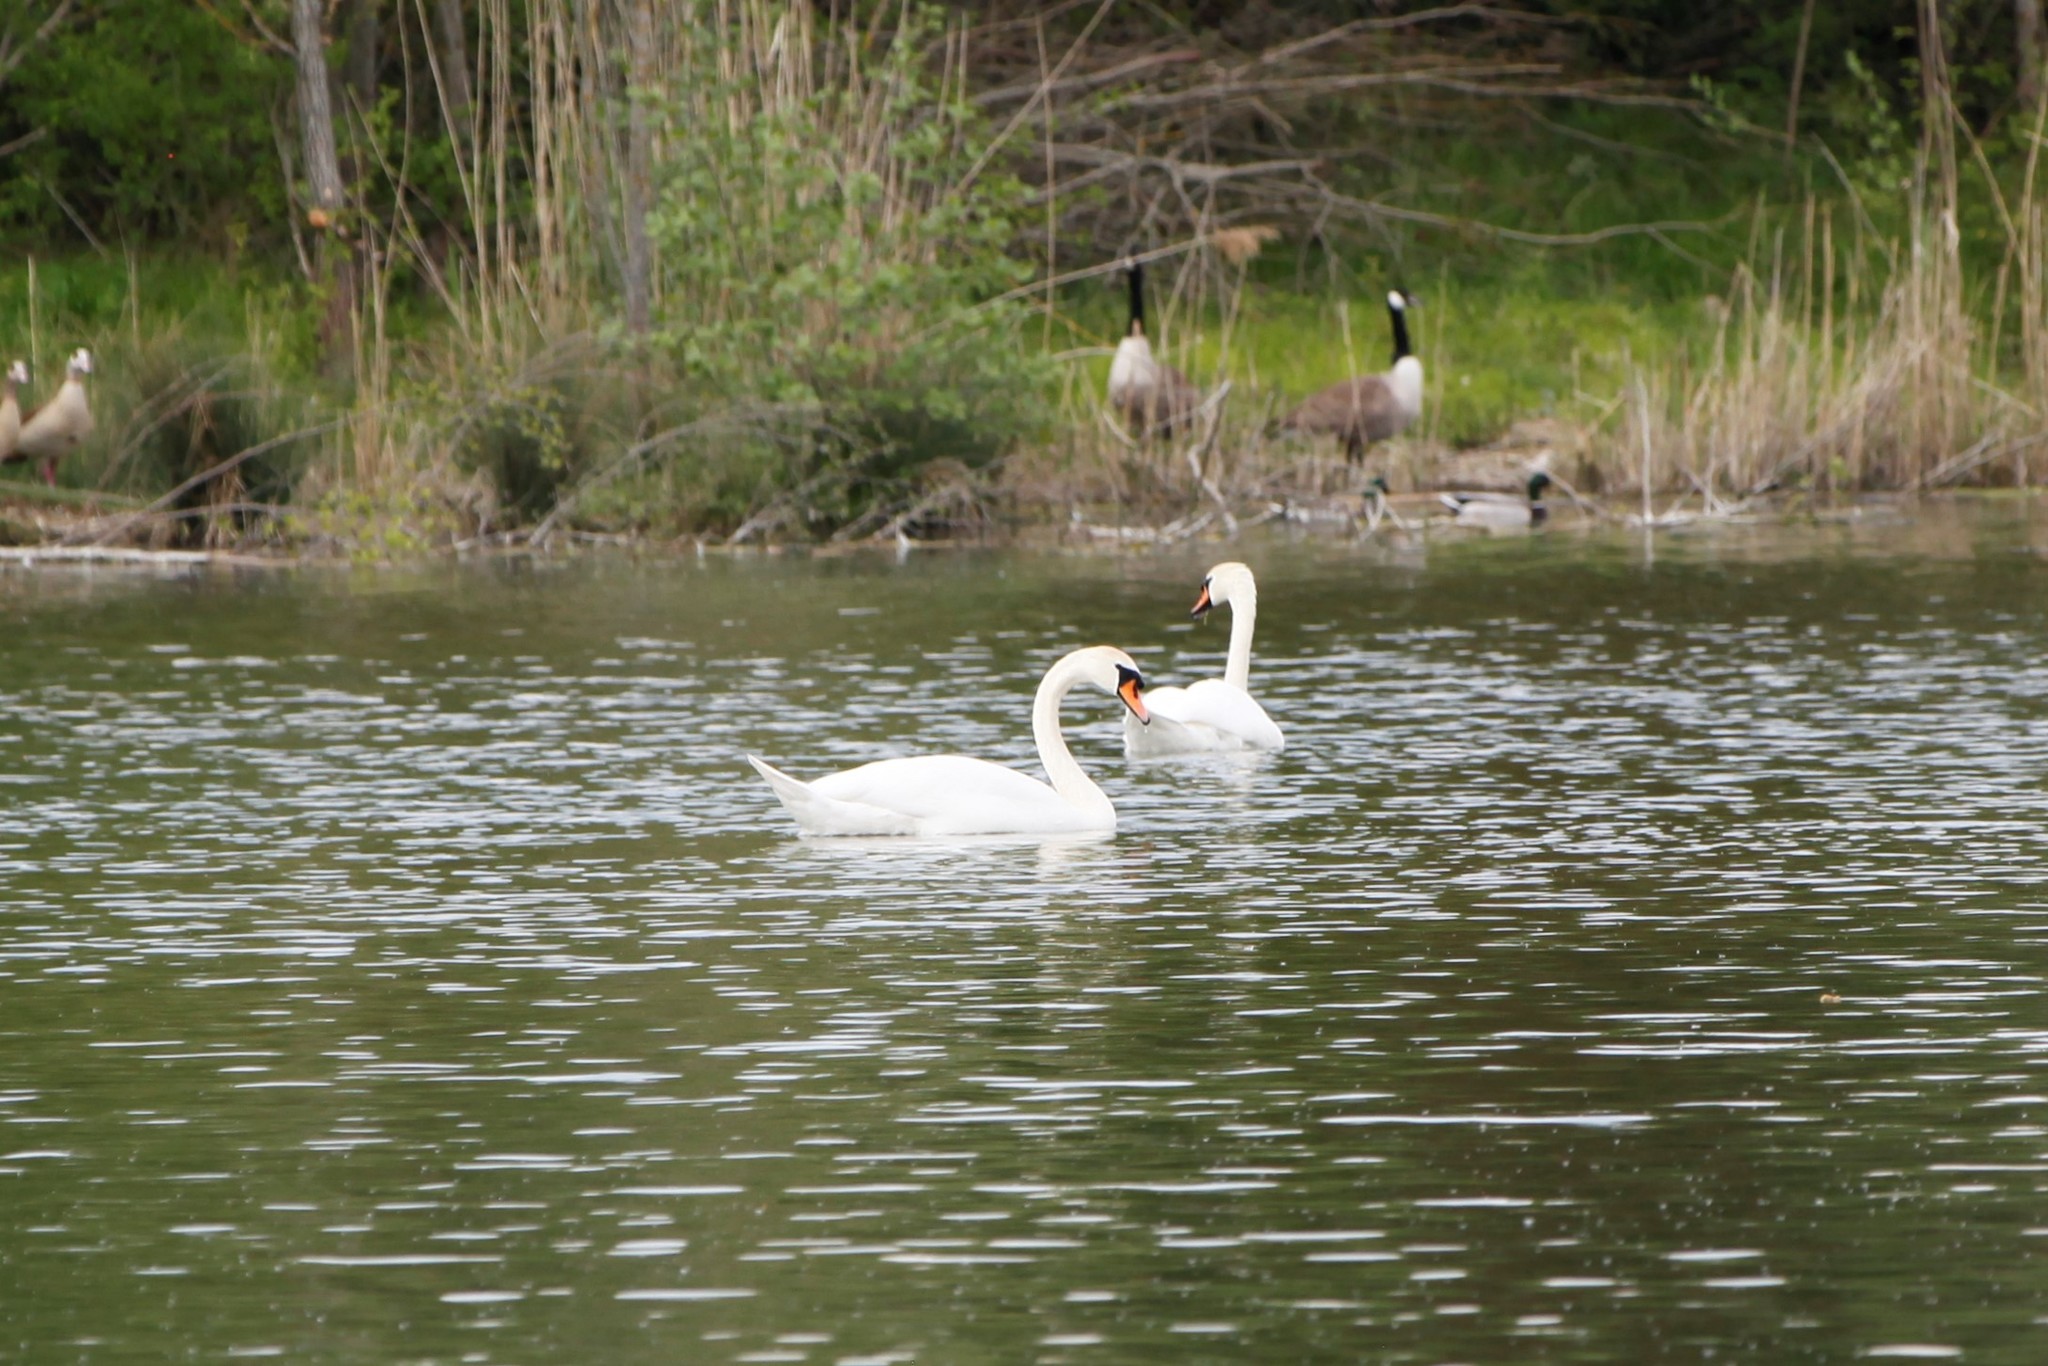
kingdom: Animalia
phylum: Chordata
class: Aves
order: Anseriformes
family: Anatidae
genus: Cygnus
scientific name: Cygnus olor
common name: Mute swan
